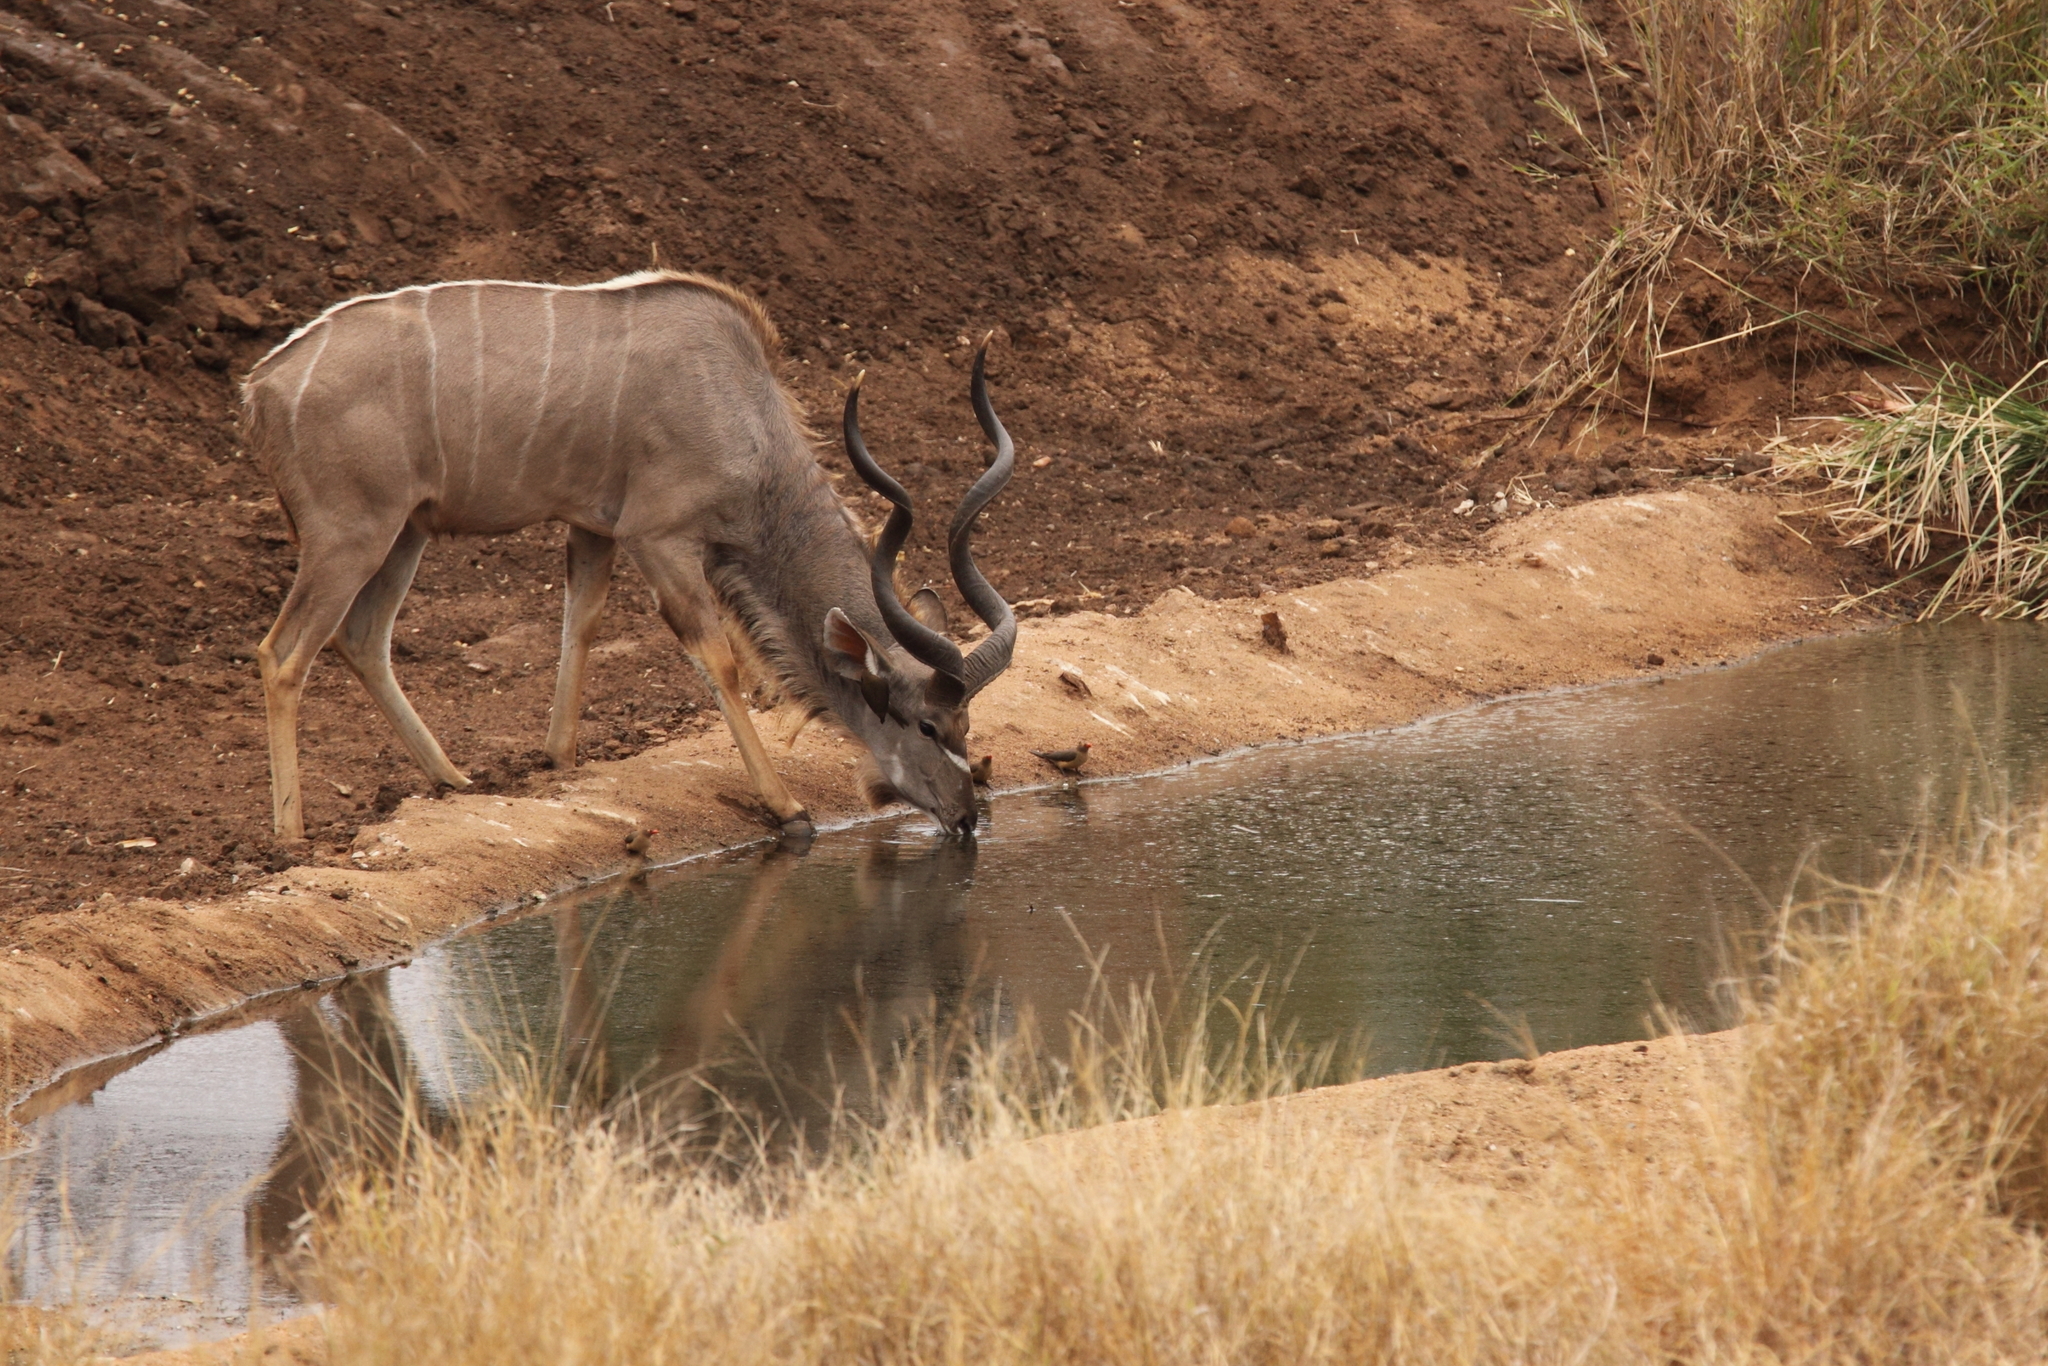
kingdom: Animalia
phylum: Chordata
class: Mammalia
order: Artiodactyla
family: Bovidae
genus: Tragelaphus
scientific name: Tragelaphus strepsiceros
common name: Greater kudu
